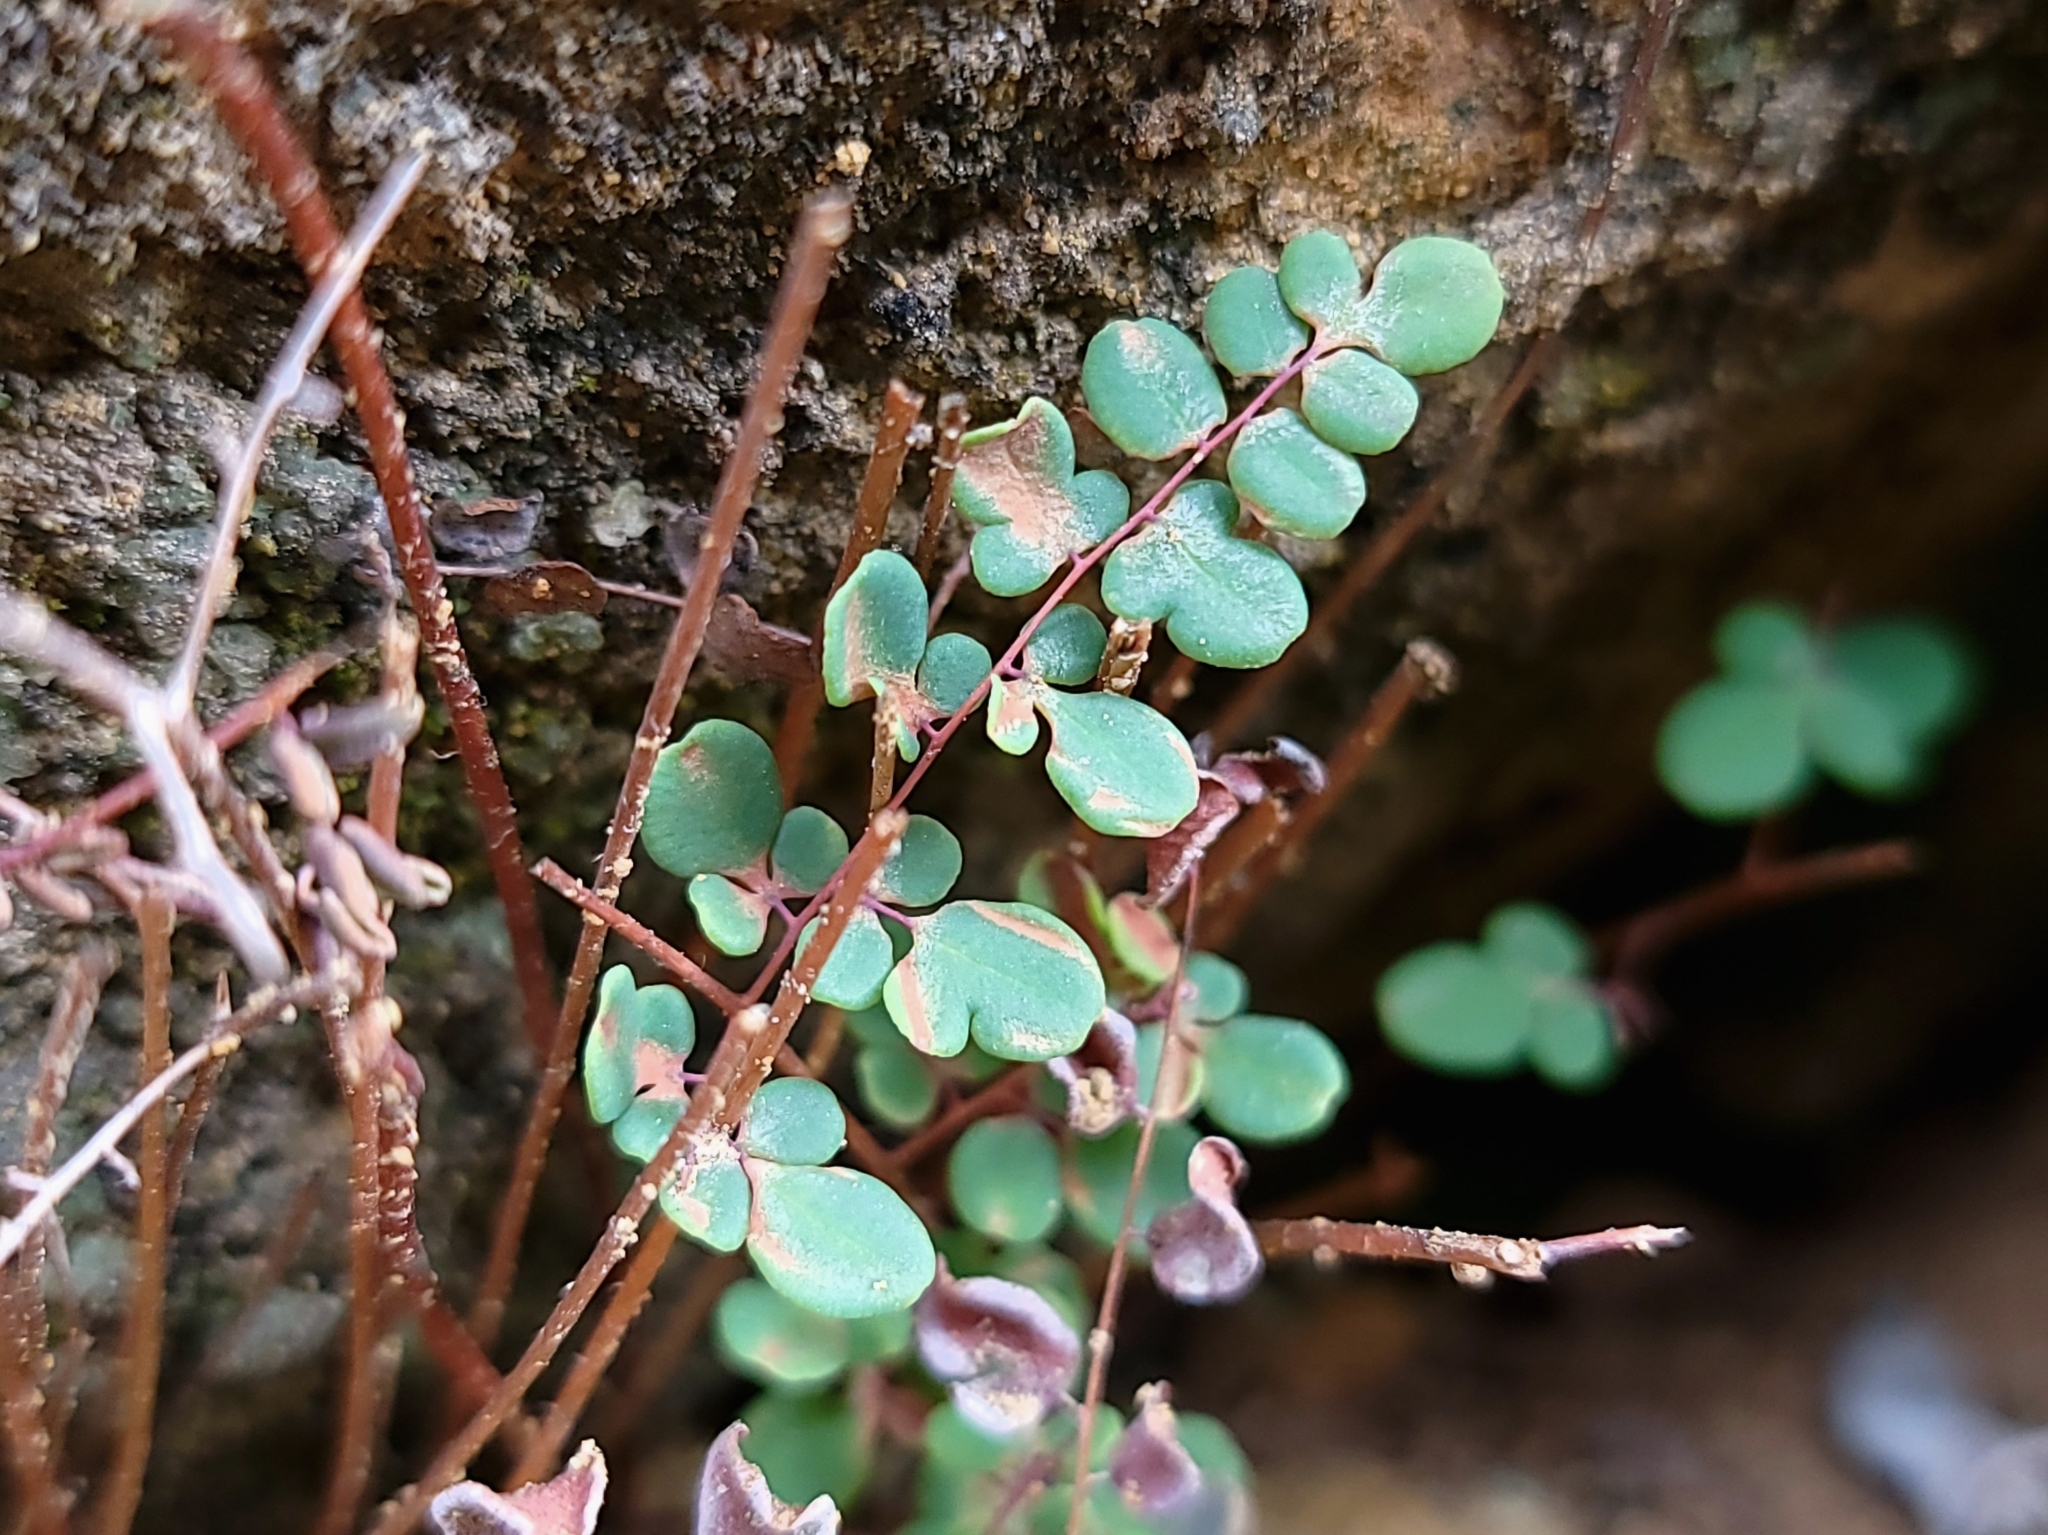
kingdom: Plantae
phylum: Tracheophyta
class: Polypodiopsida
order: Polypodiales
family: Pteridaceae
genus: Pellaea
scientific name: Pellaea andromedifolia
